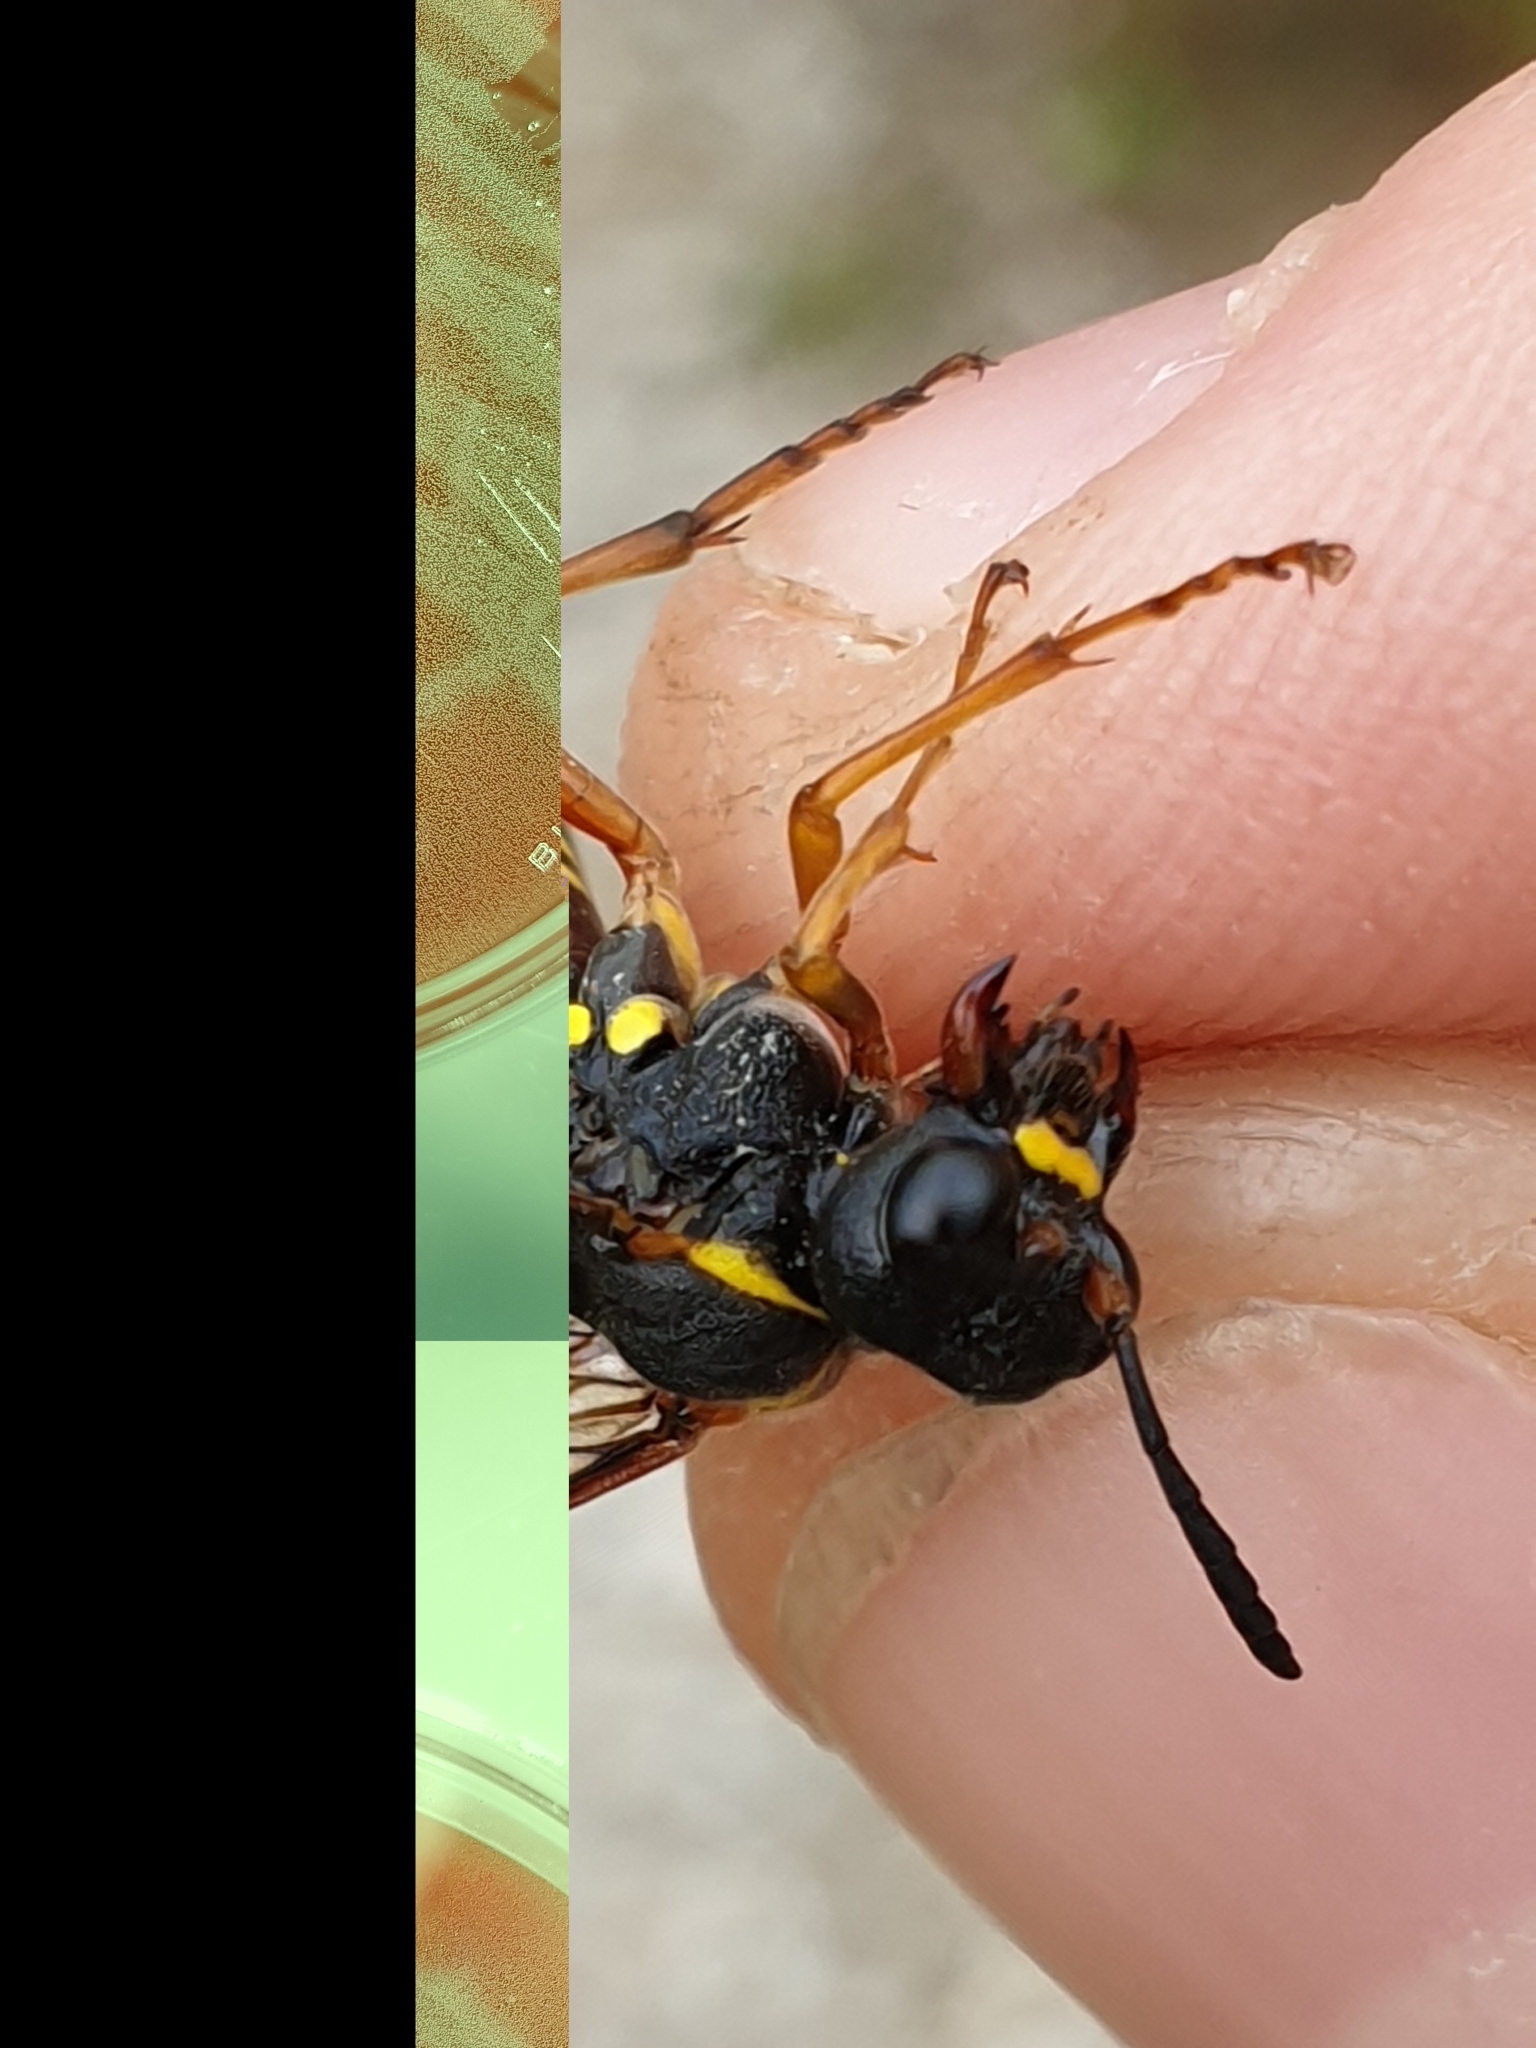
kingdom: Animalia
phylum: Arthropoda
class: Insecta
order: Hymenoptera
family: Tenthredinidae
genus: Tenthredo
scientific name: Tenthredo vespa
